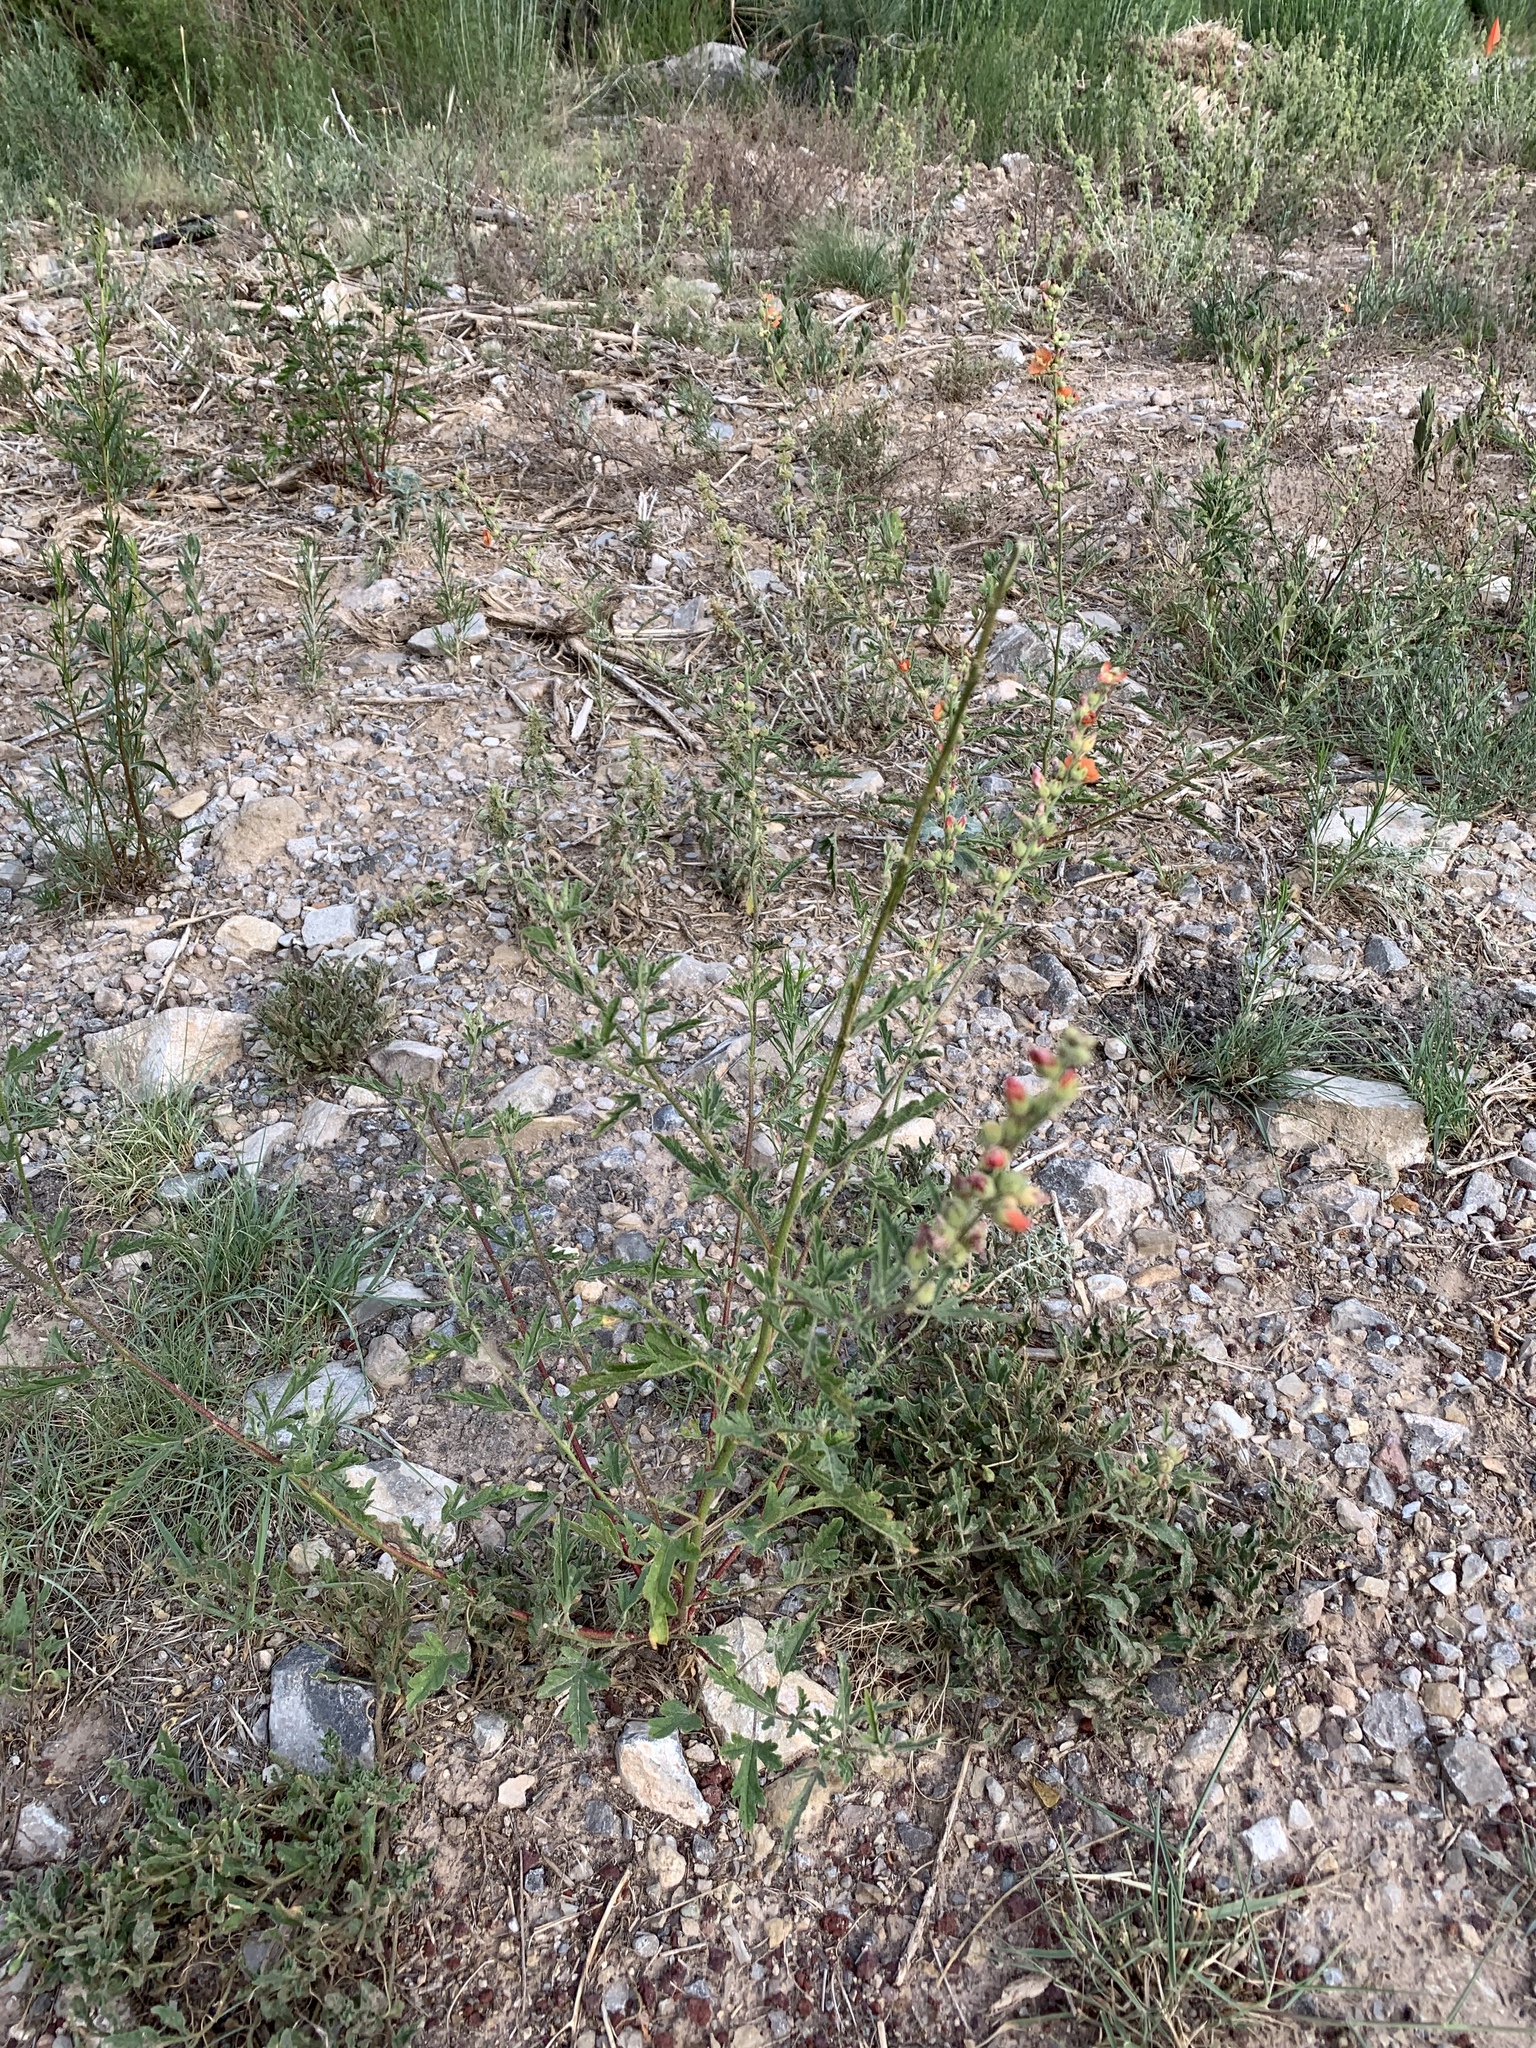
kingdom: Plantae
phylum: Tracheophyta
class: Magnoliopsida
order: Malvales
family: Malvaceae
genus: Sphaeralcea
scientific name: Sphaeralcea angustifolia
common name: Copper globe-mallow
